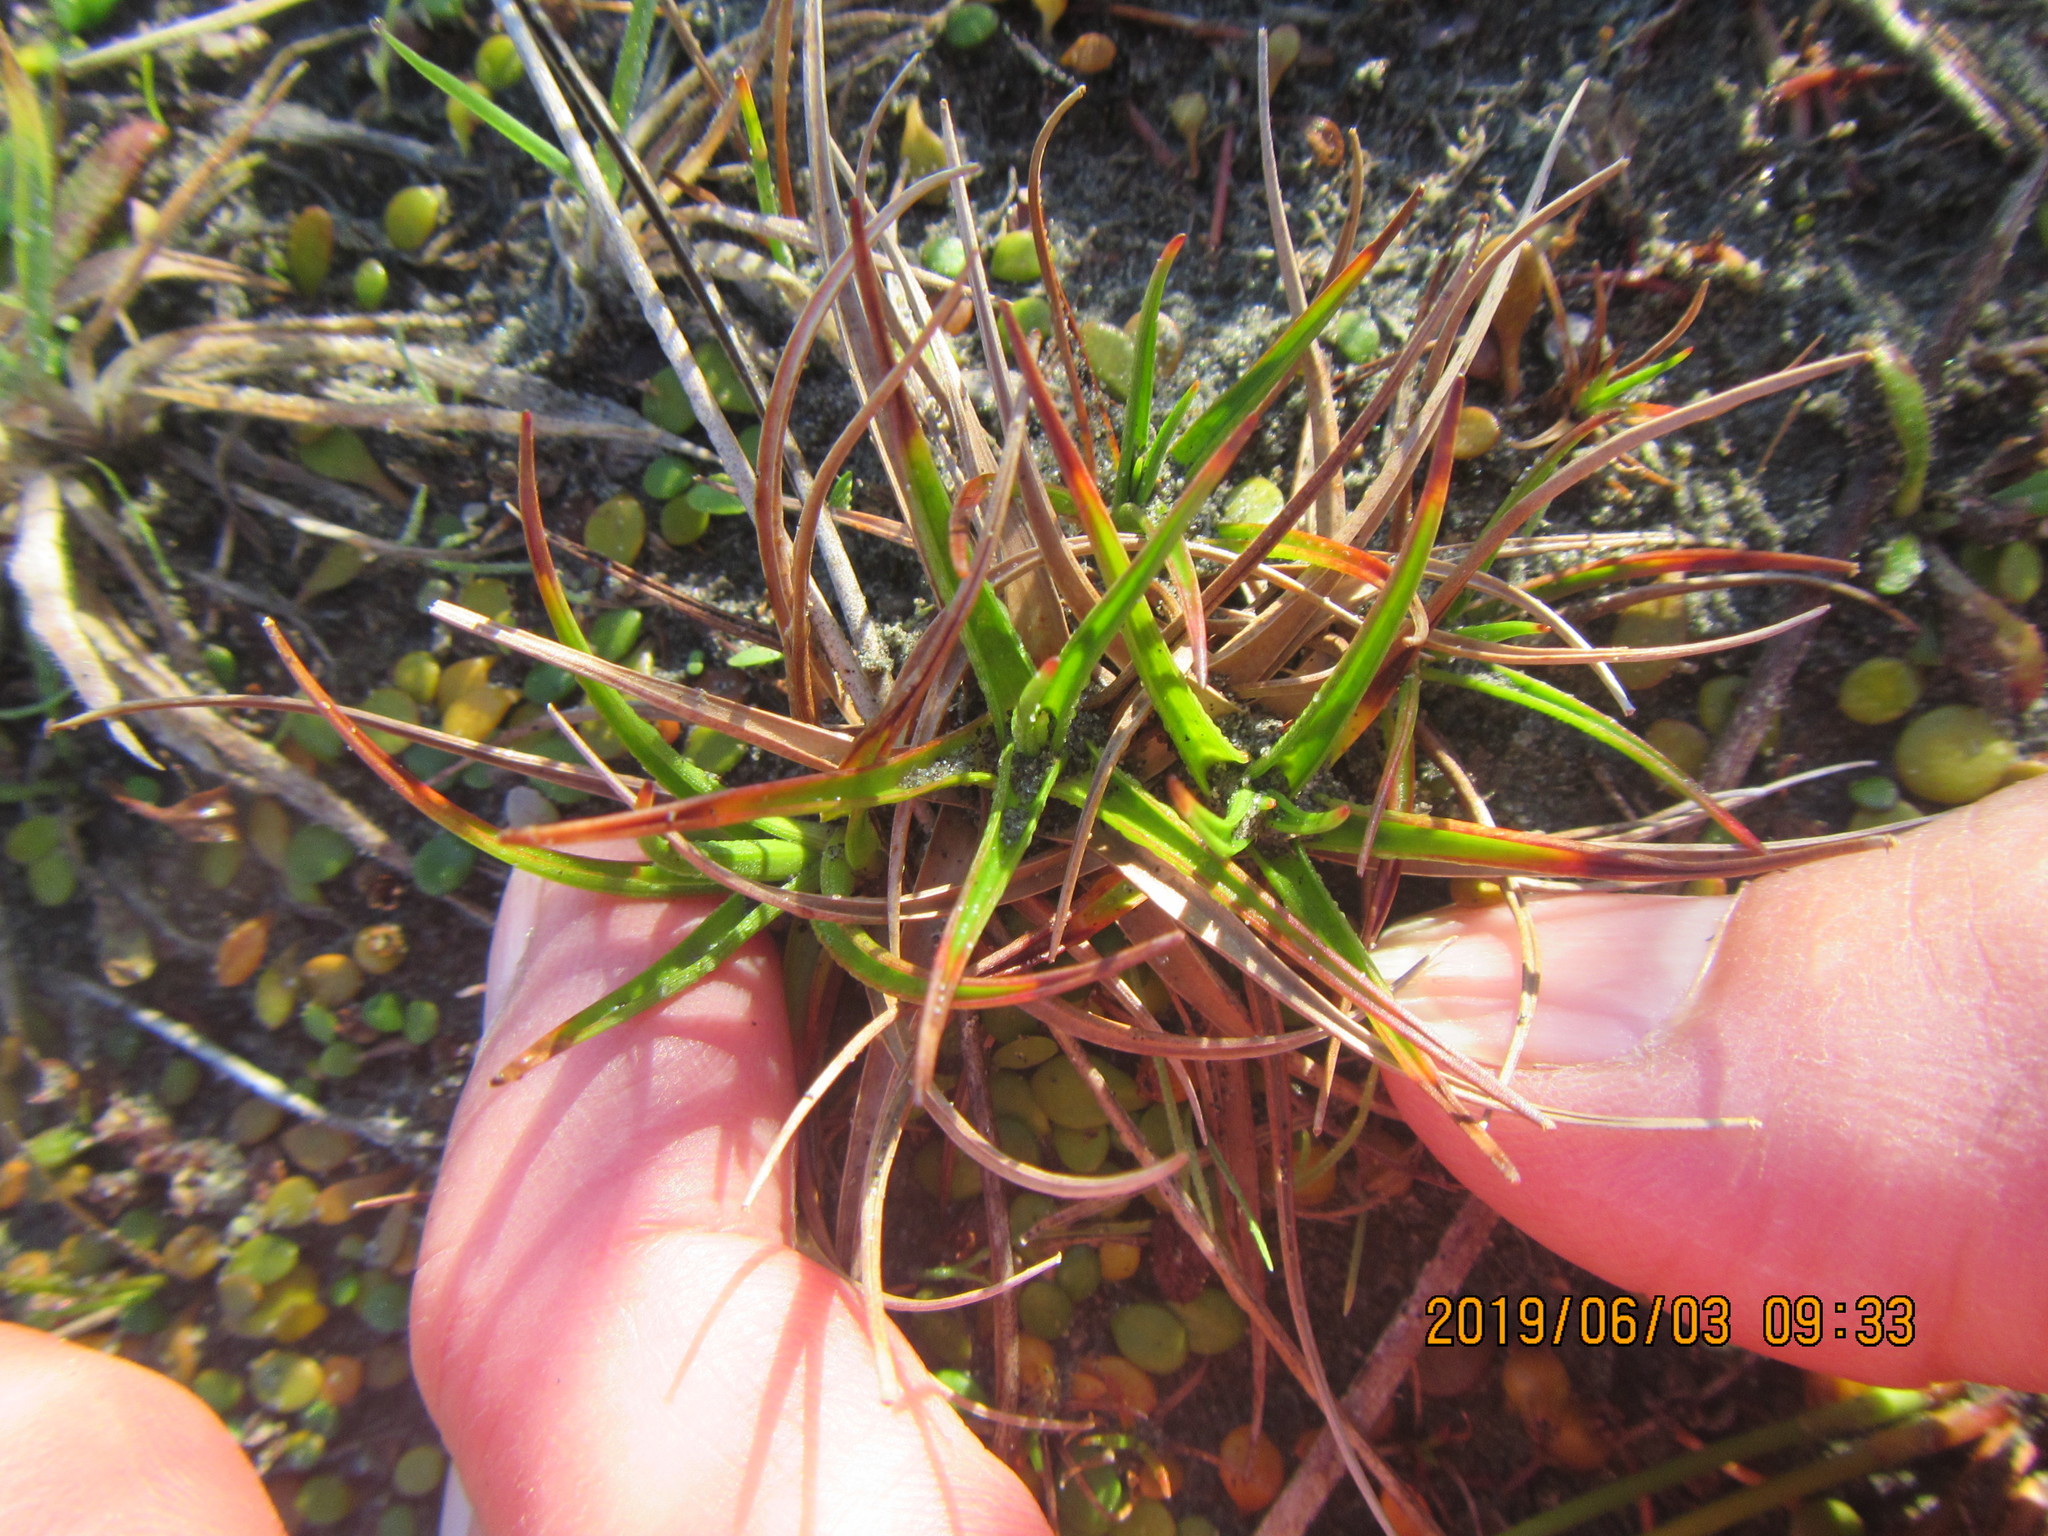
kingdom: Plantae
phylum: Tracheophyta
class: Liliopsida
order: Poales
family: Juncaceae
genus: Juncus
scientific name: Juncus caespiticius
